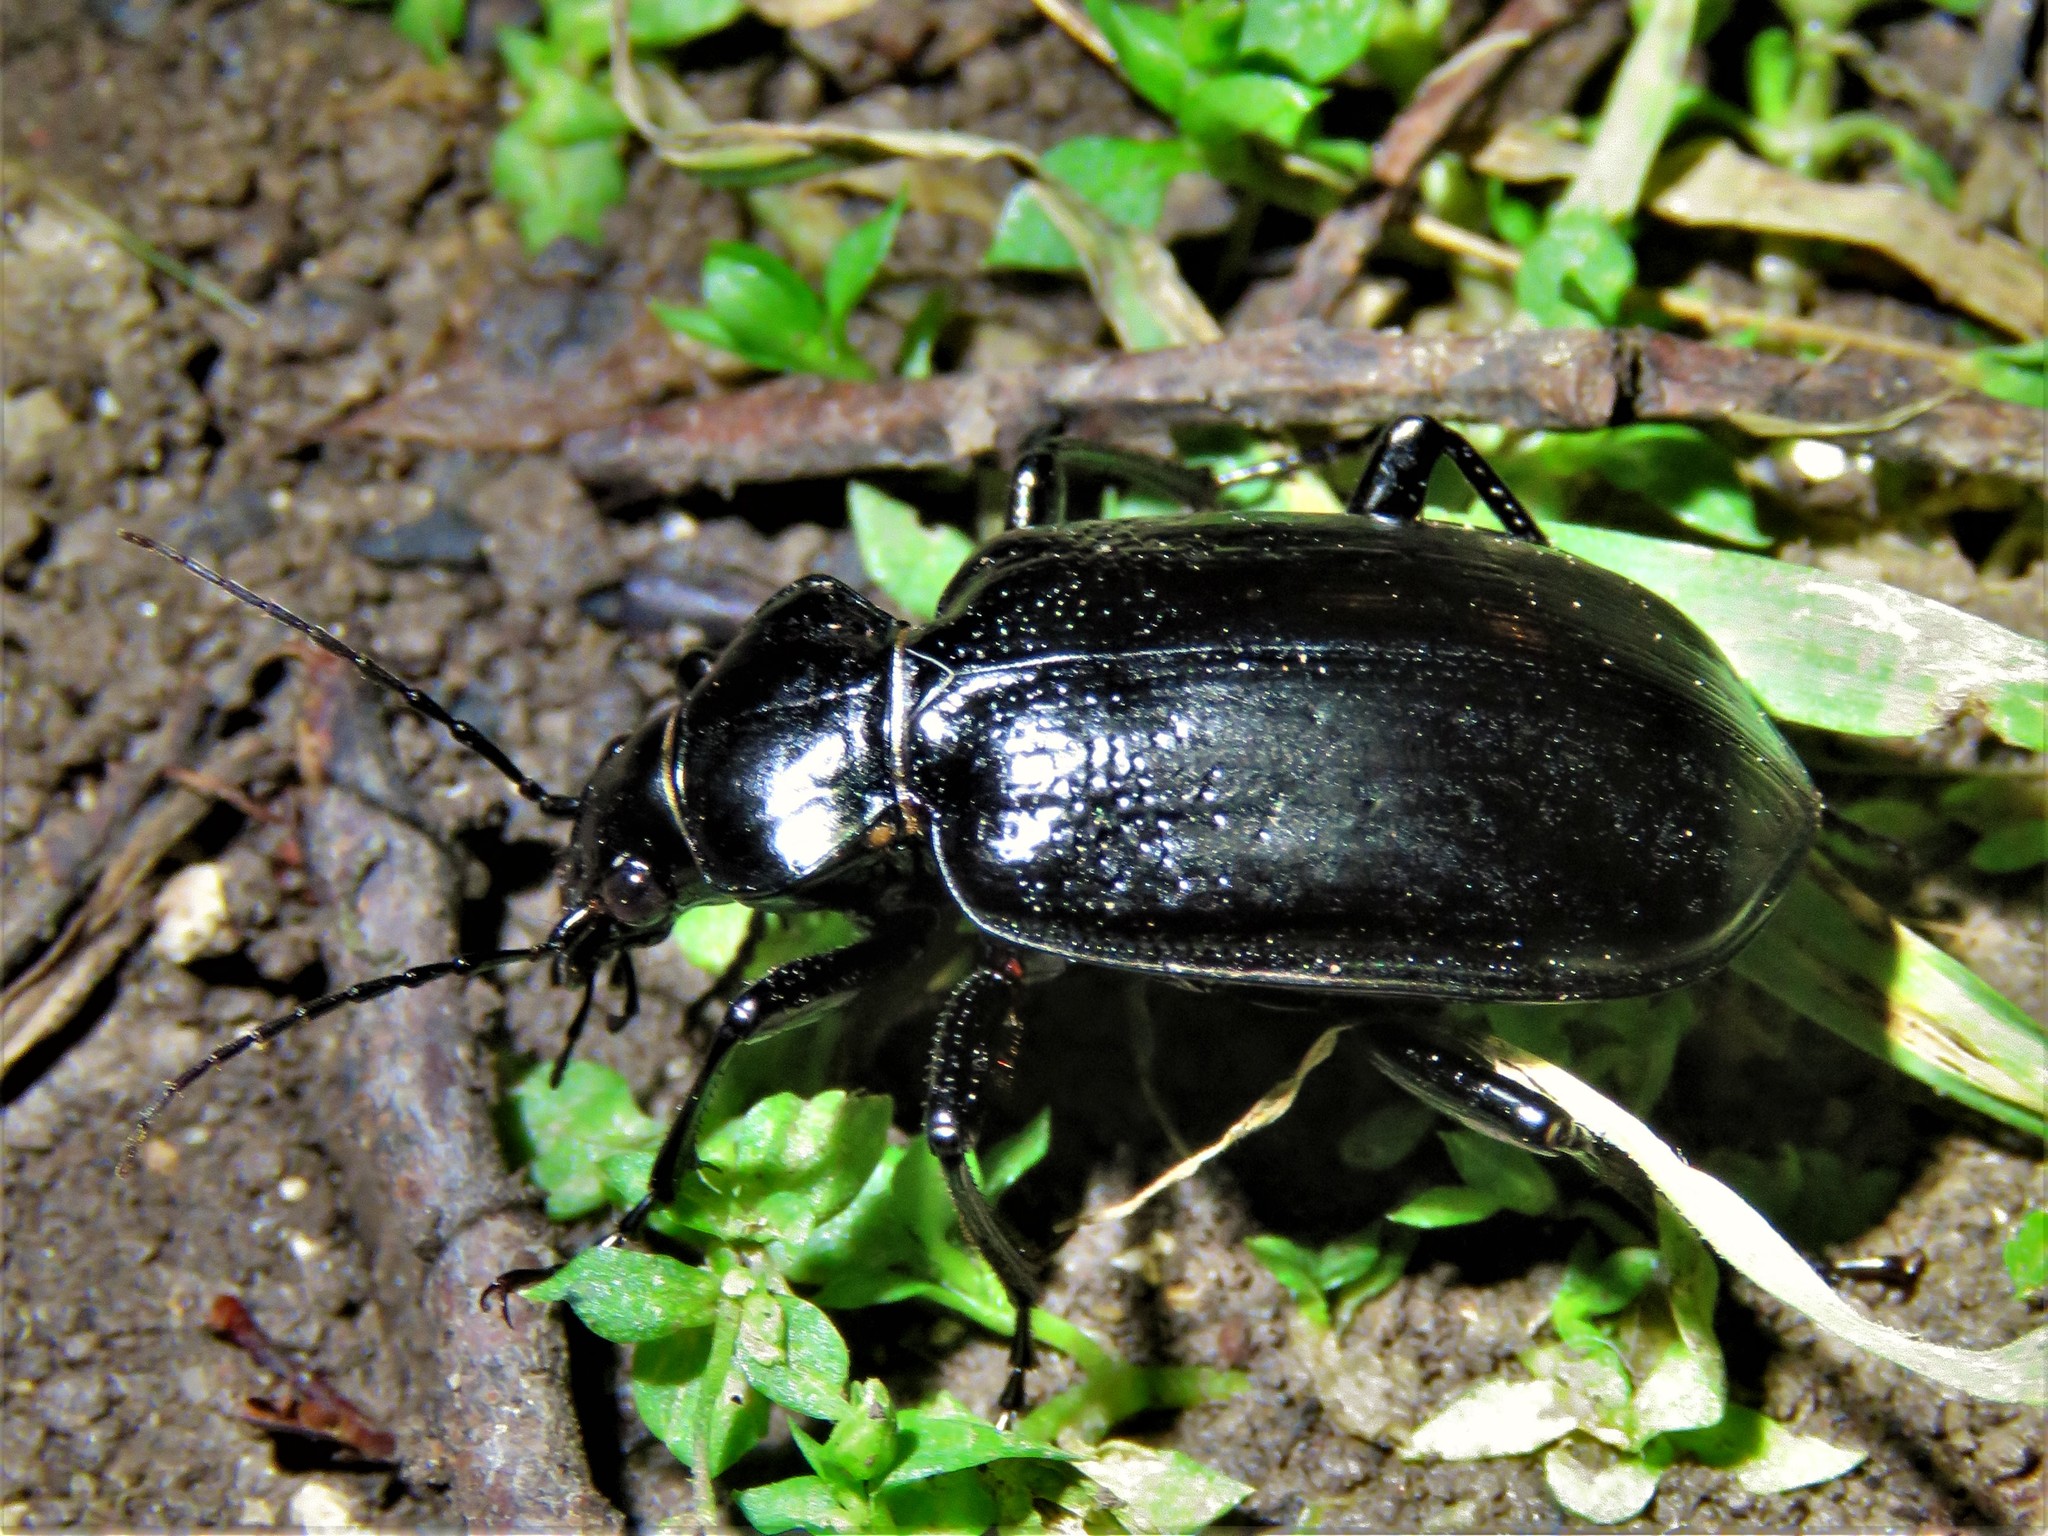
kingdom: Animalia
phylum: Arthropoda
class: Insecta
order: Coleoptera
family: Carabidae
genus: Calosoma
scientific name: Calosoma marginale
